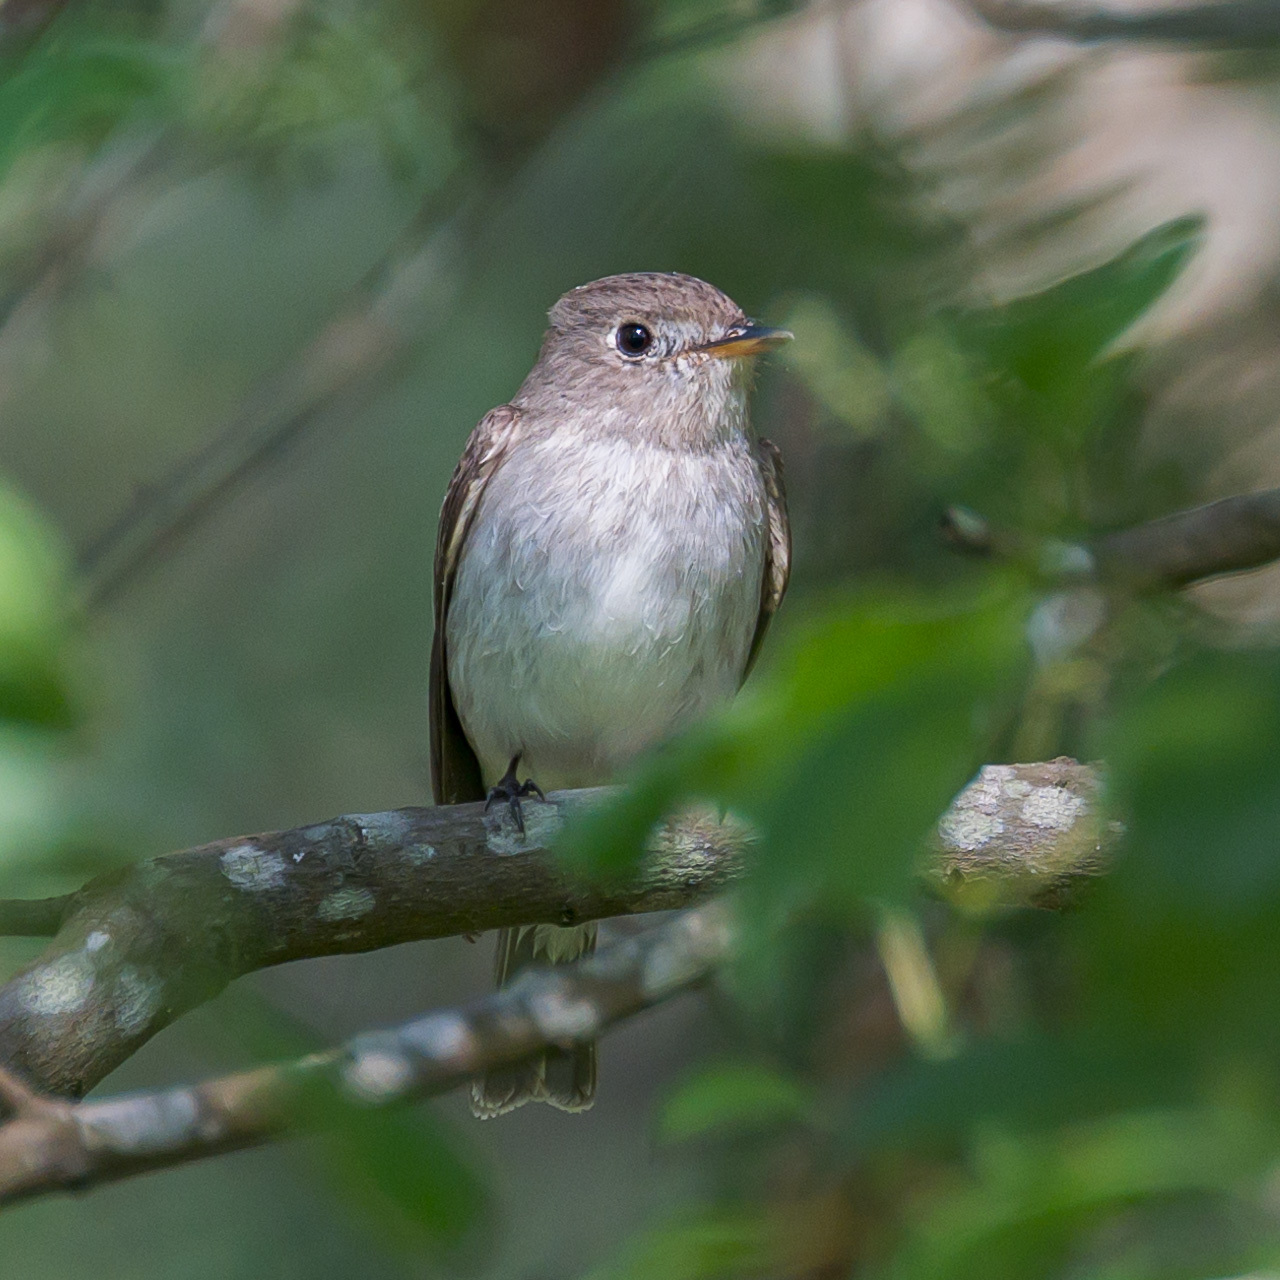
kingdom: Animalia
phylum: Chordata
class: Aves
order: Passeriformes
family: Muscicapidae
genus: Muscicapa
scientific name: Muscicapa latirostris
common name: Asian brown flycatcher
